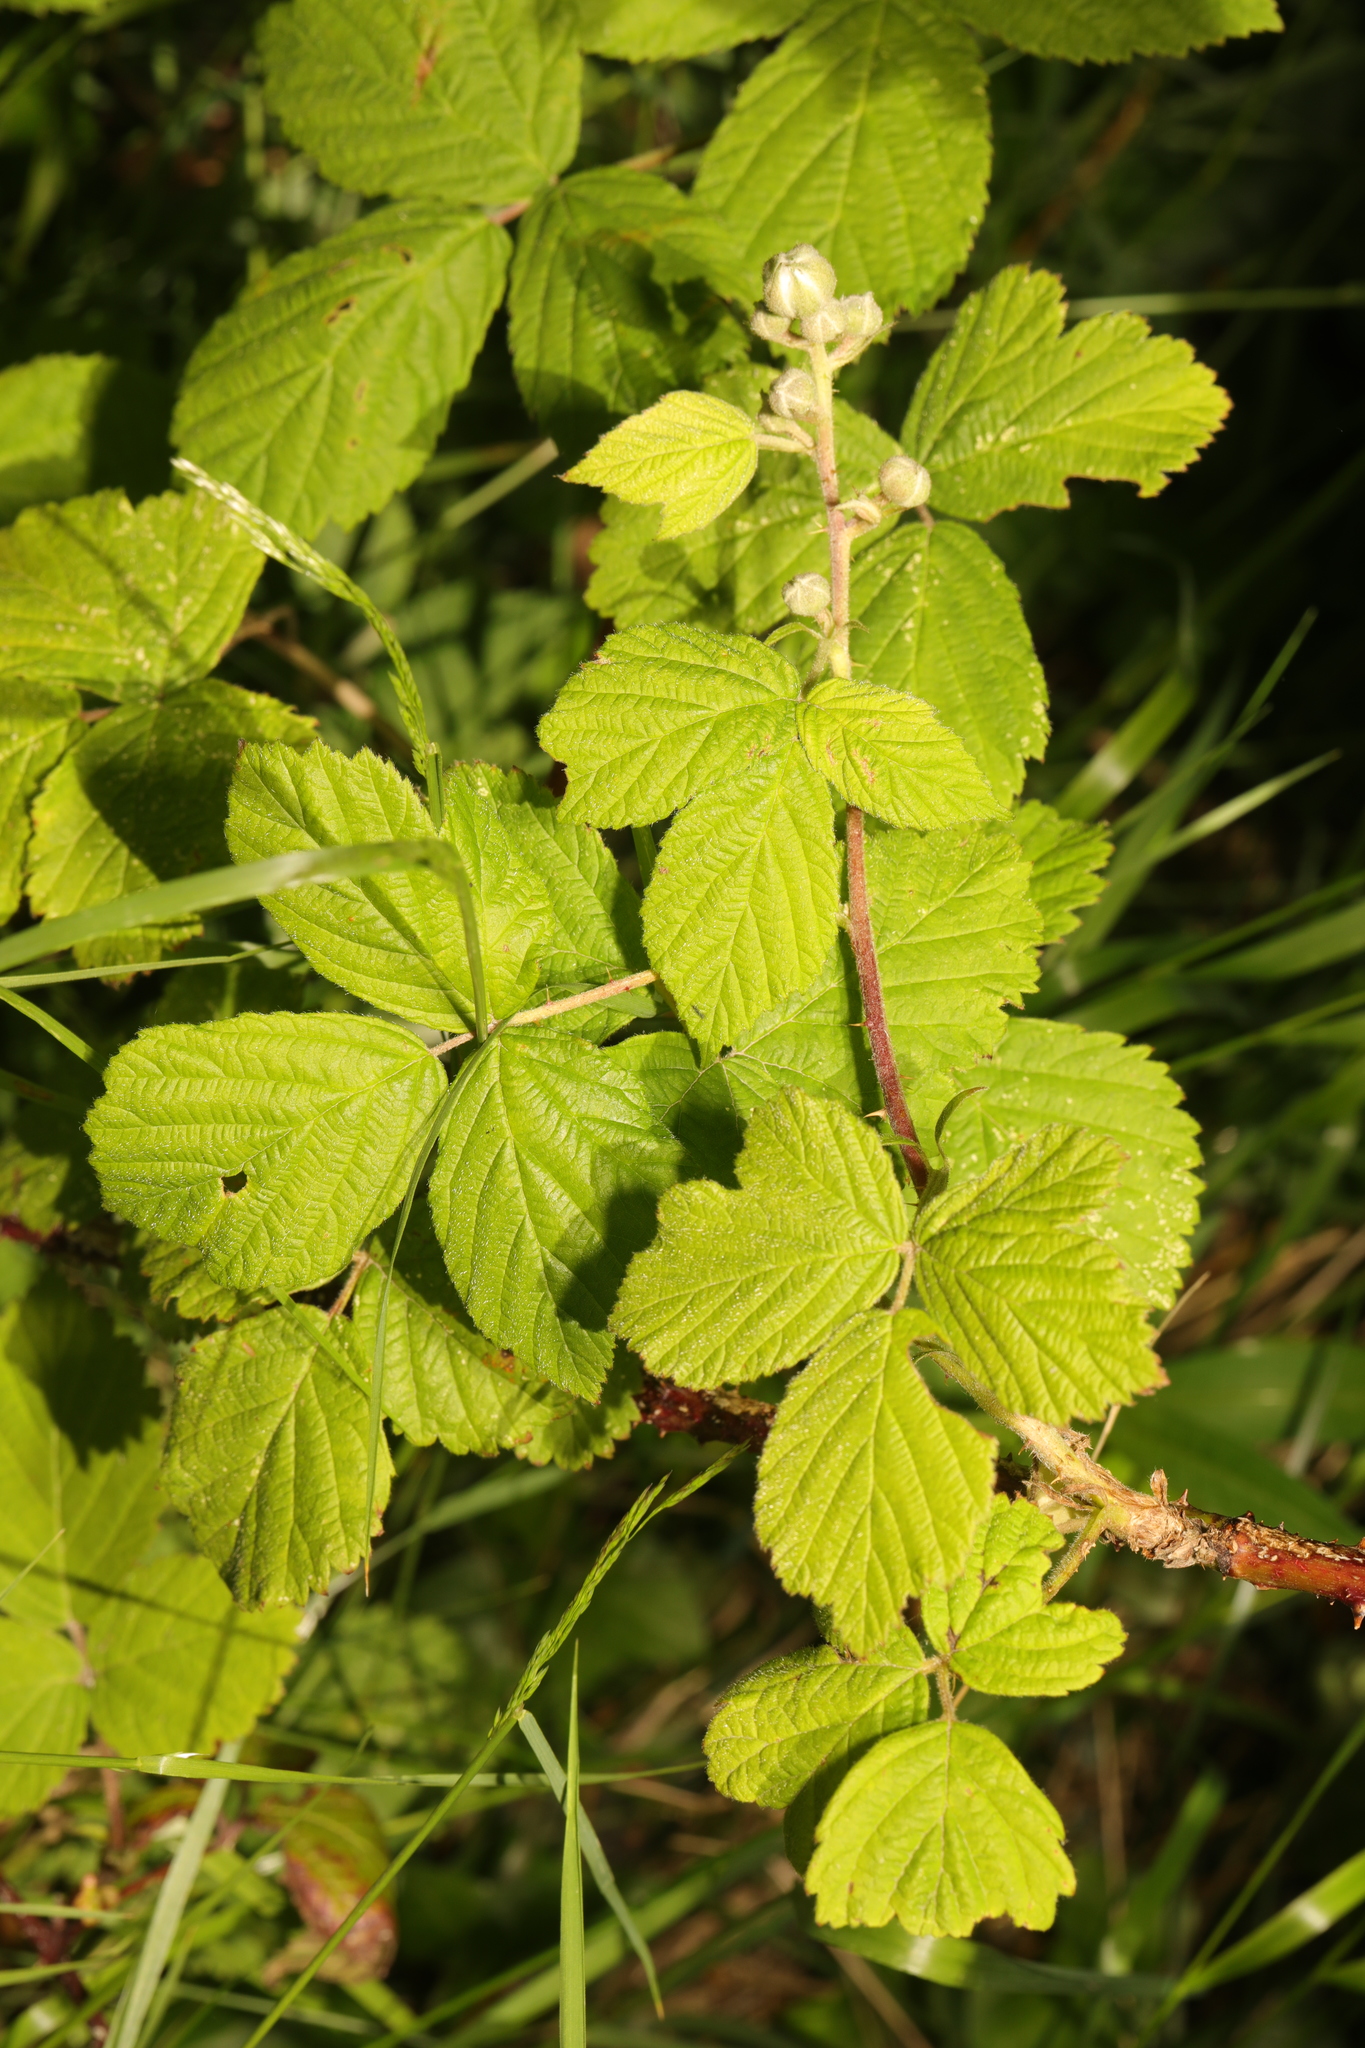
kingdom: Plantae
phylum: Tracheophyta
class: Magnoliopsida
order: Rosales
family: Rosaceae
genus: Rubus
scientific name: Rubus horrefactus
